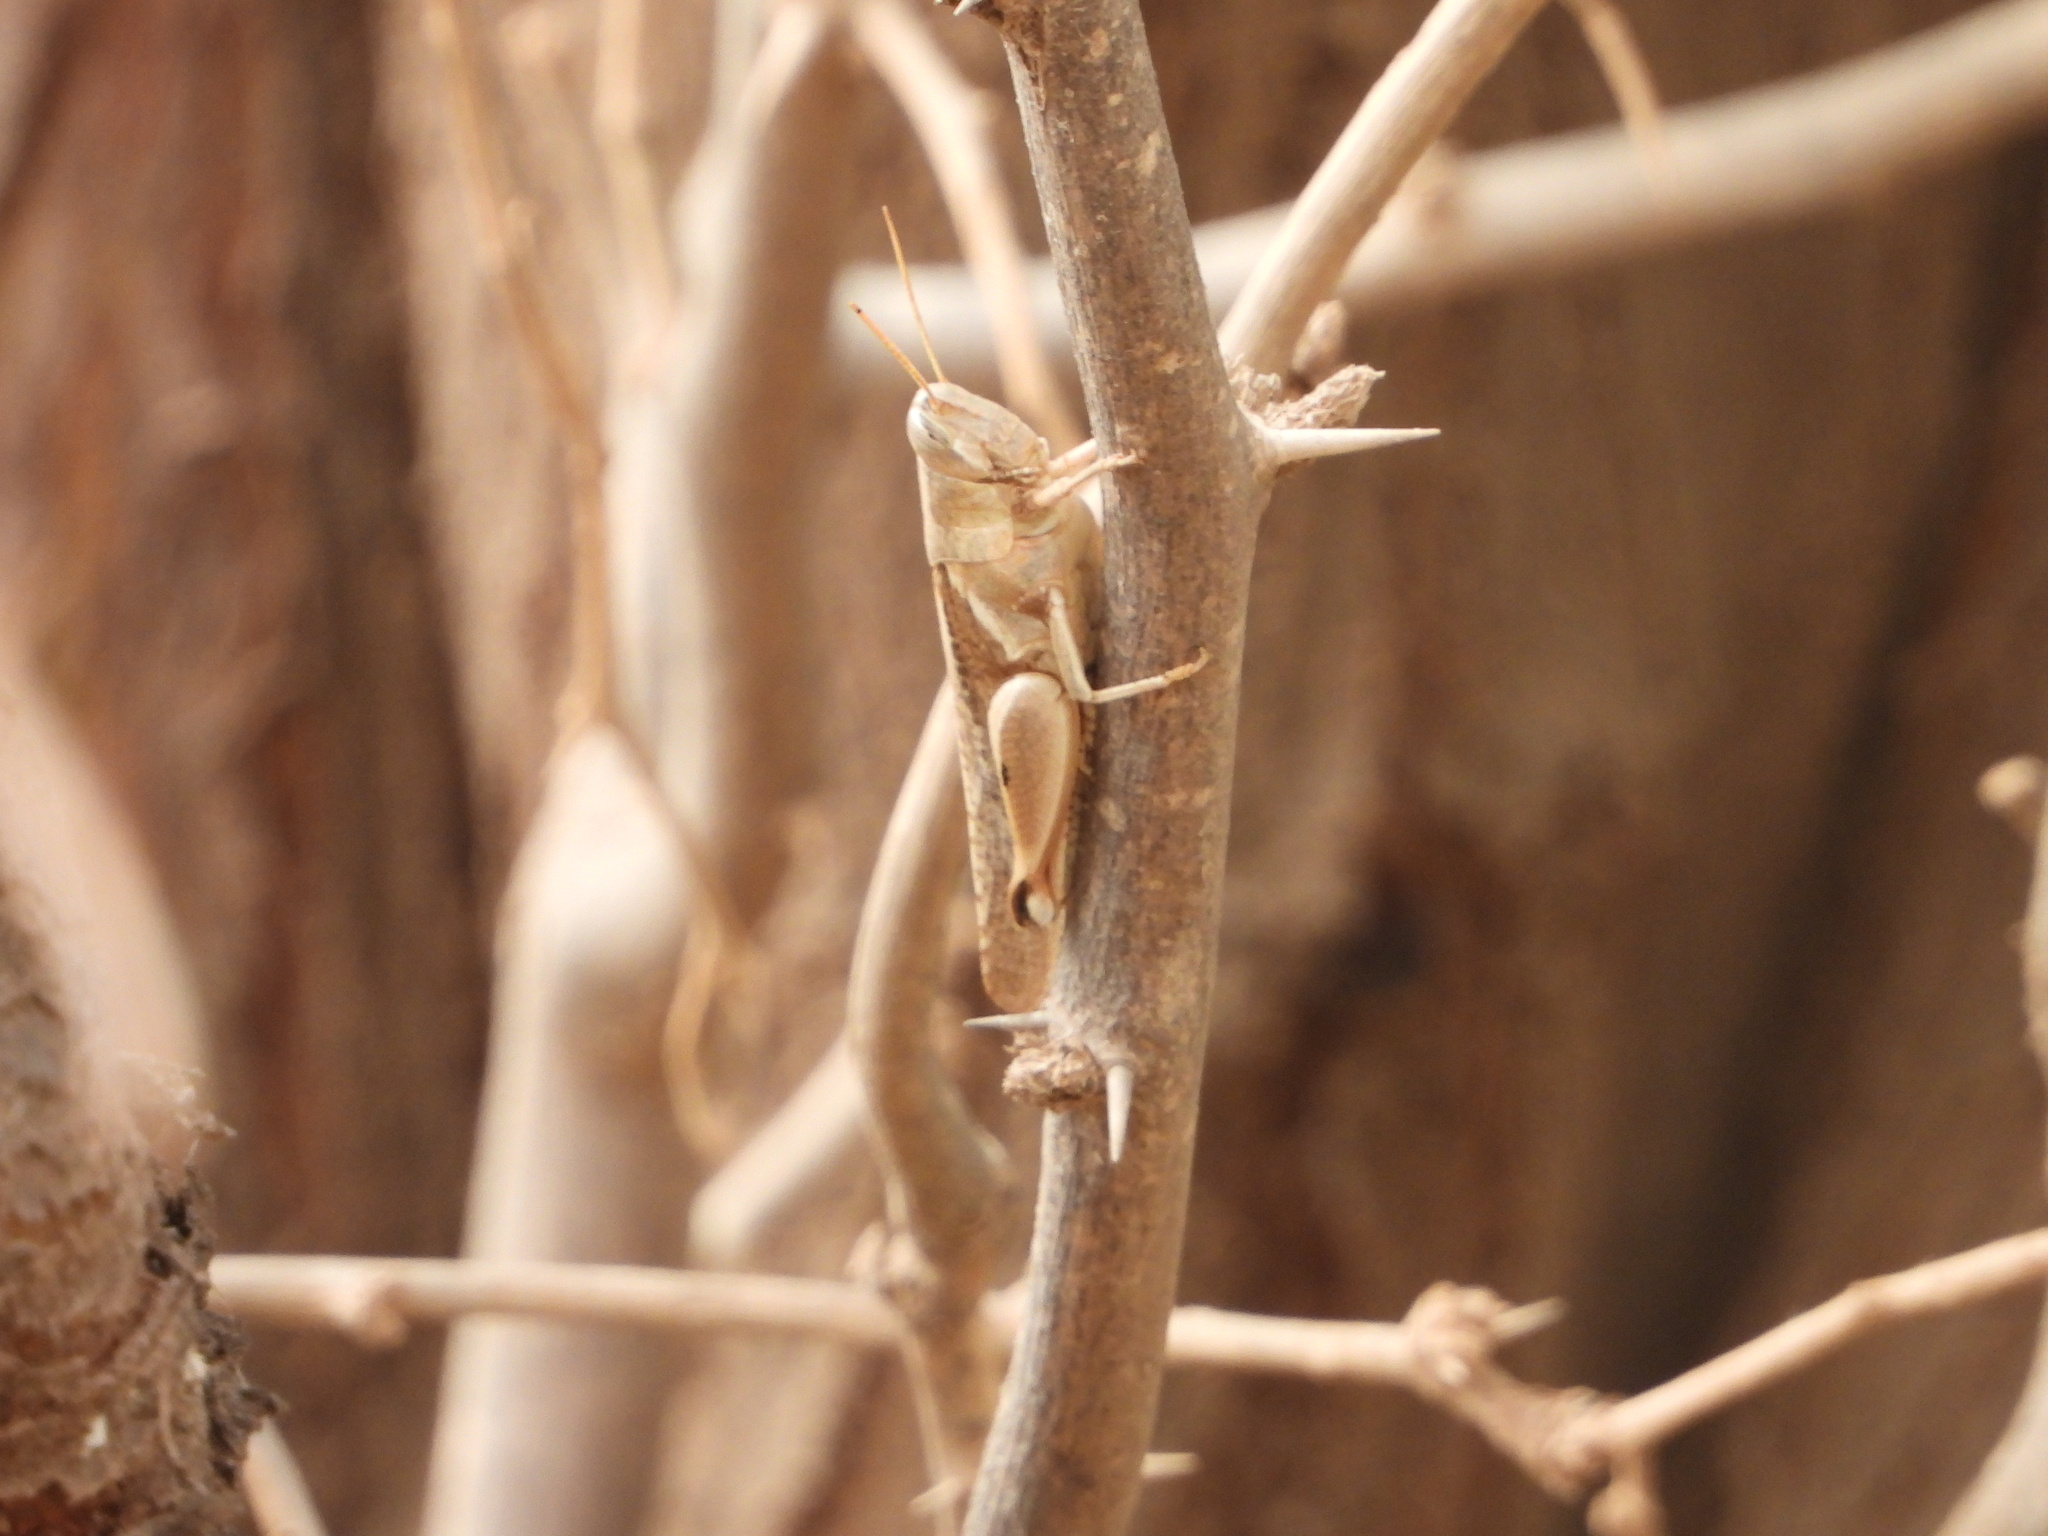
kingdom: Animalia
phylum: Arthropoda
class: Insecta
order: Orthoptera
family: Acrididae
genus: Diabolocatantops
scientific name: Diabolocatantops axillaris
